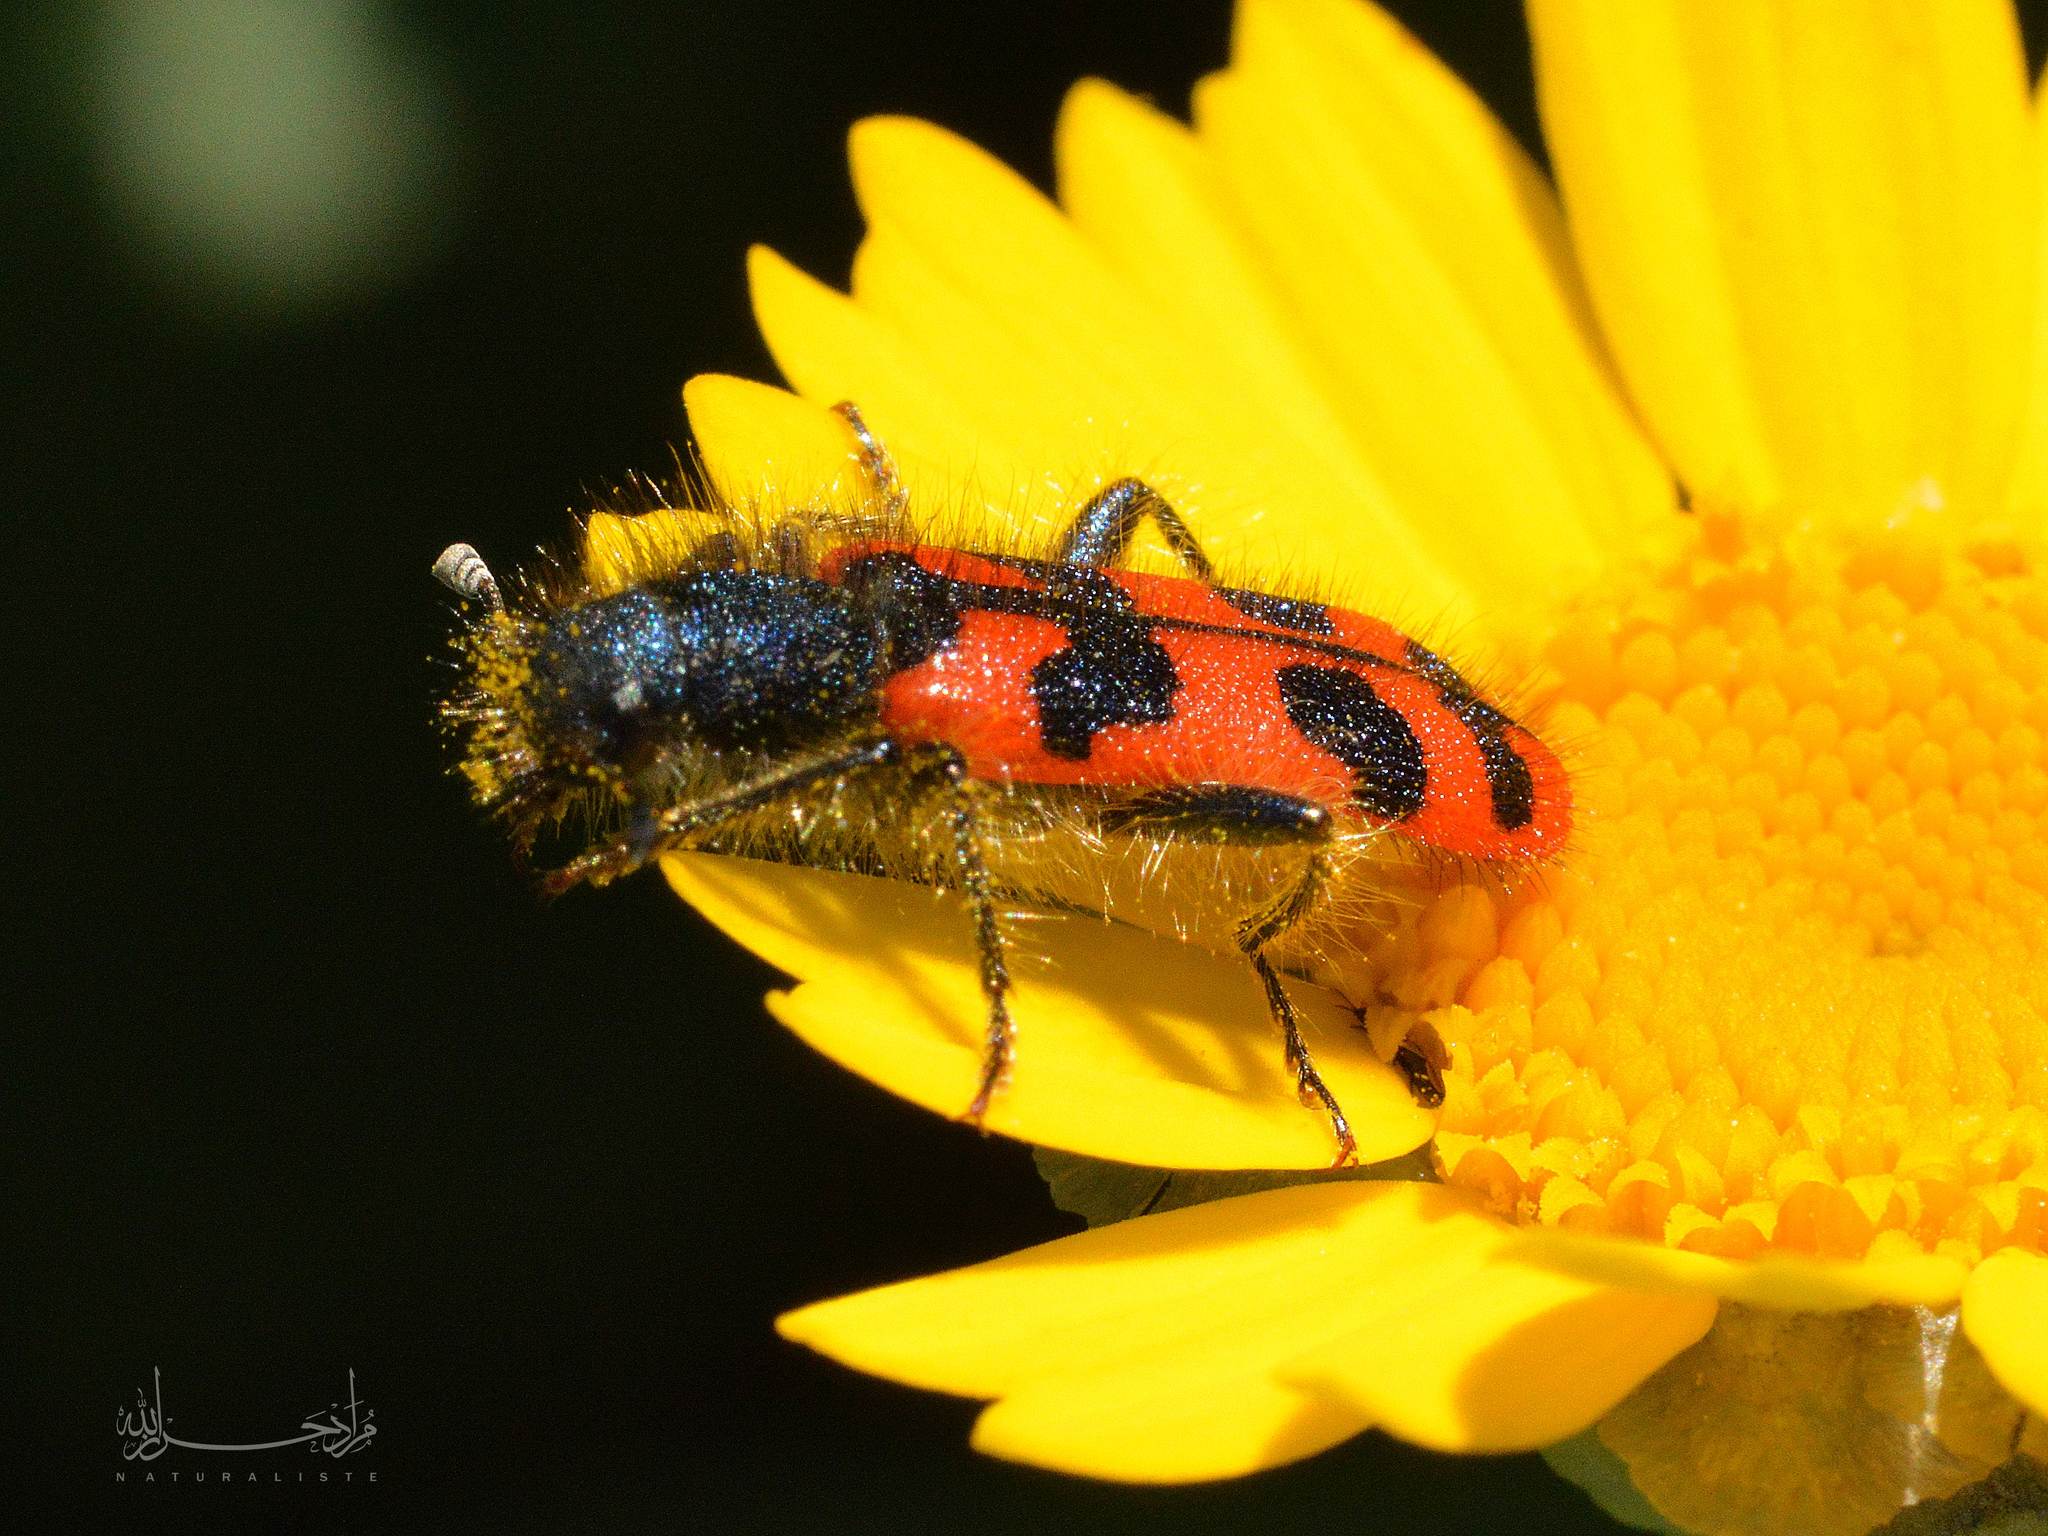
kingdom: Animalia
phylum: Arthropoda
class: Insecta
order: Coleoptera
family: Cleridae
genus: Trichodes
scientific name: Trichodes umbellatarum
